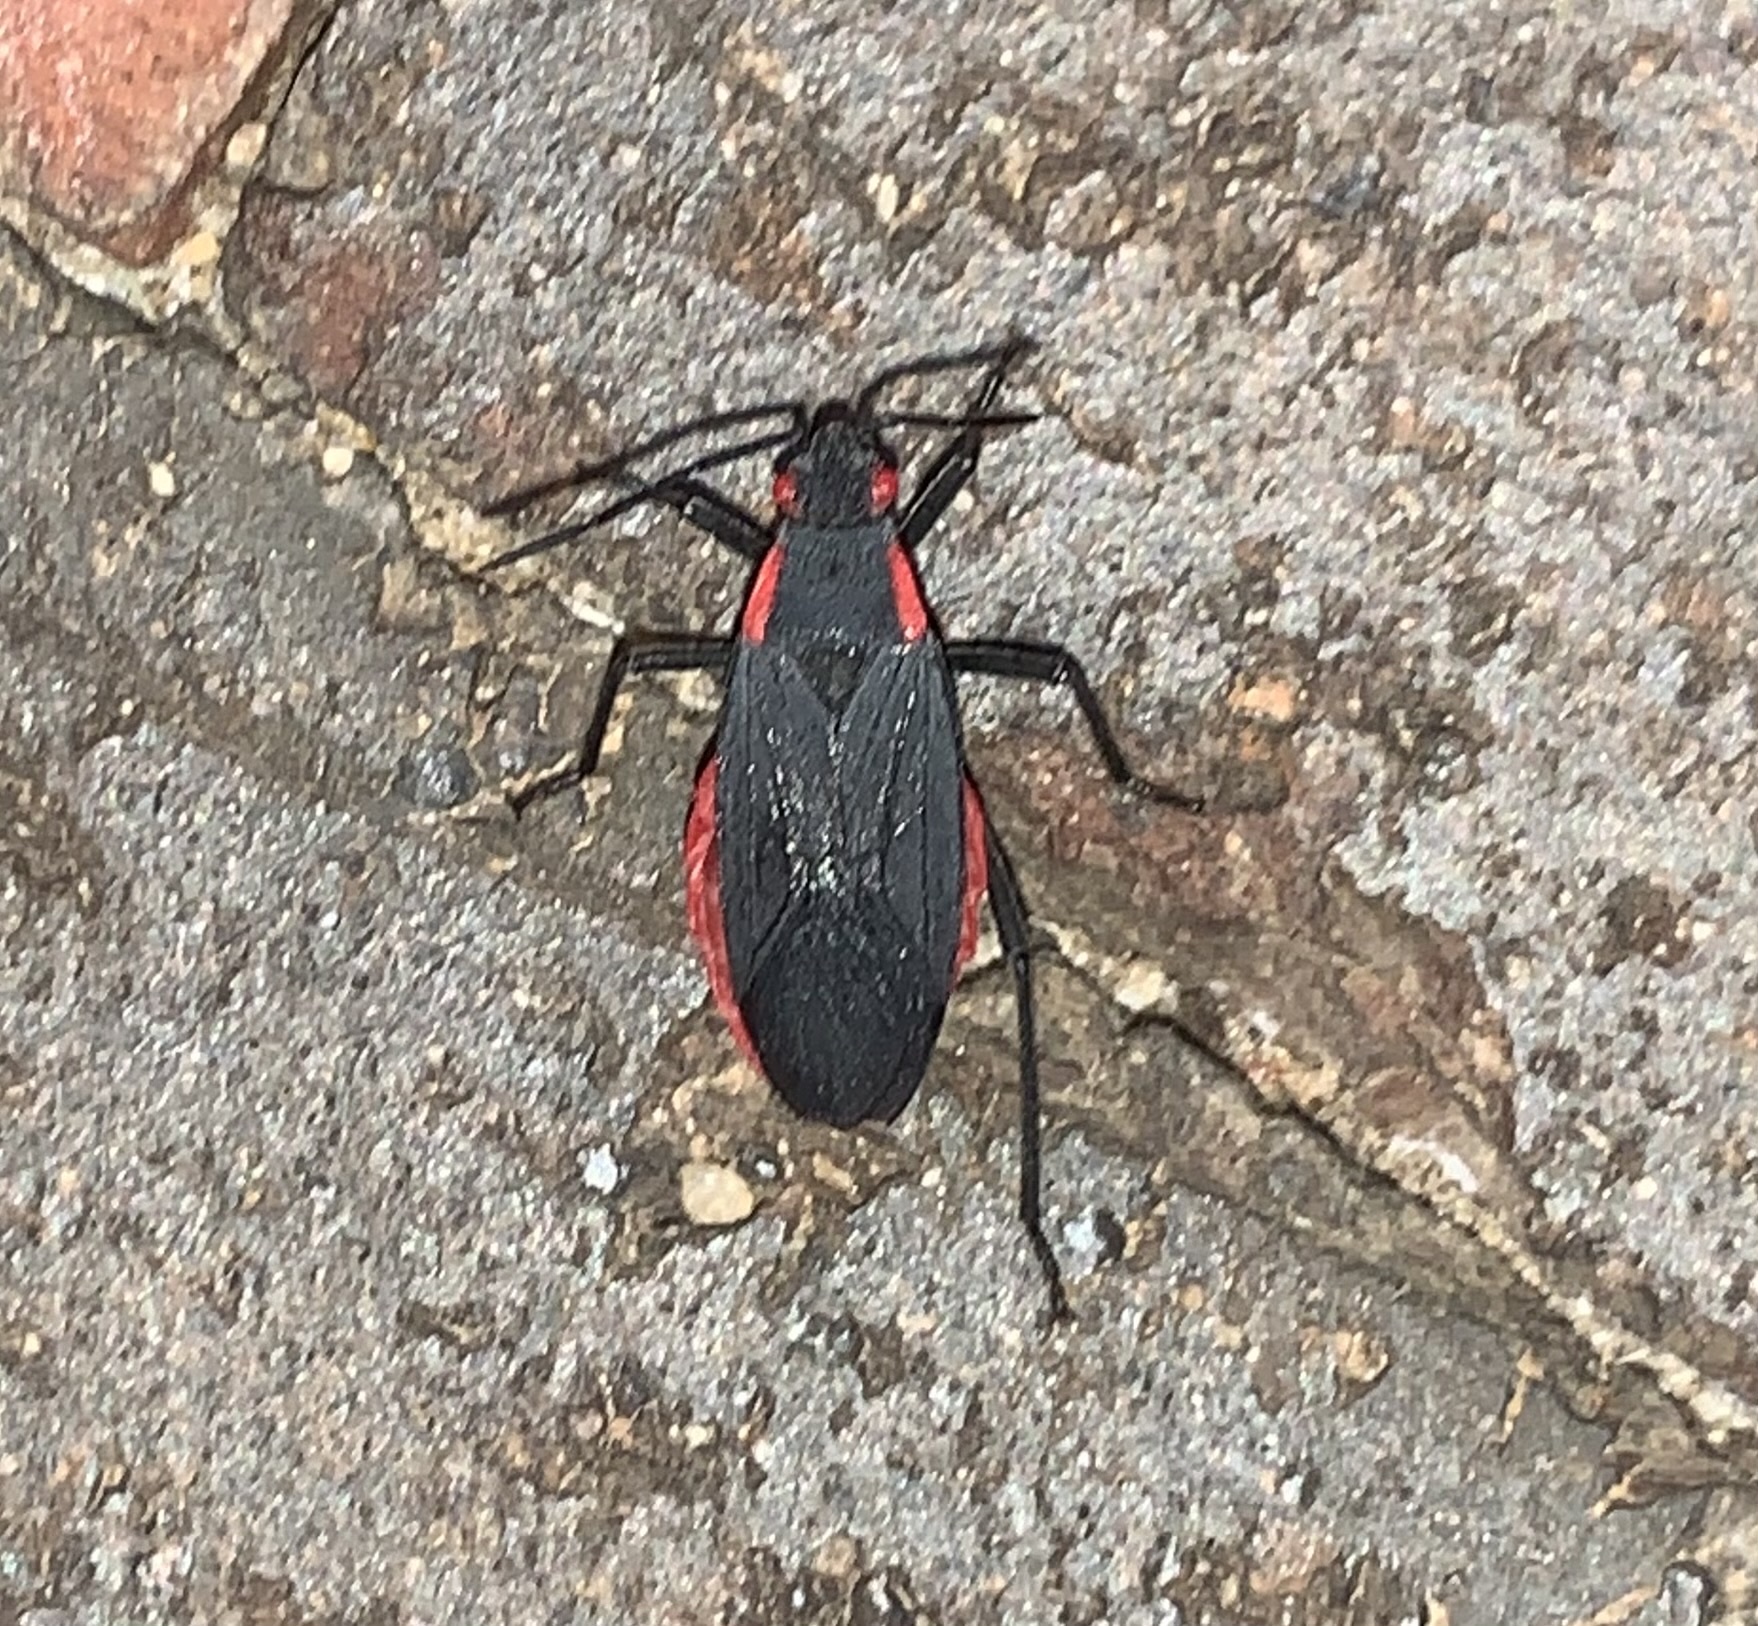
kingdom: Animalia
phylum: Arthropoda
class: Insecta
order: Hemiptera
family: Rhopalidae
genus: Jadera
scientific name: Jadera haematoloma
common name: Red-shouldered bug
